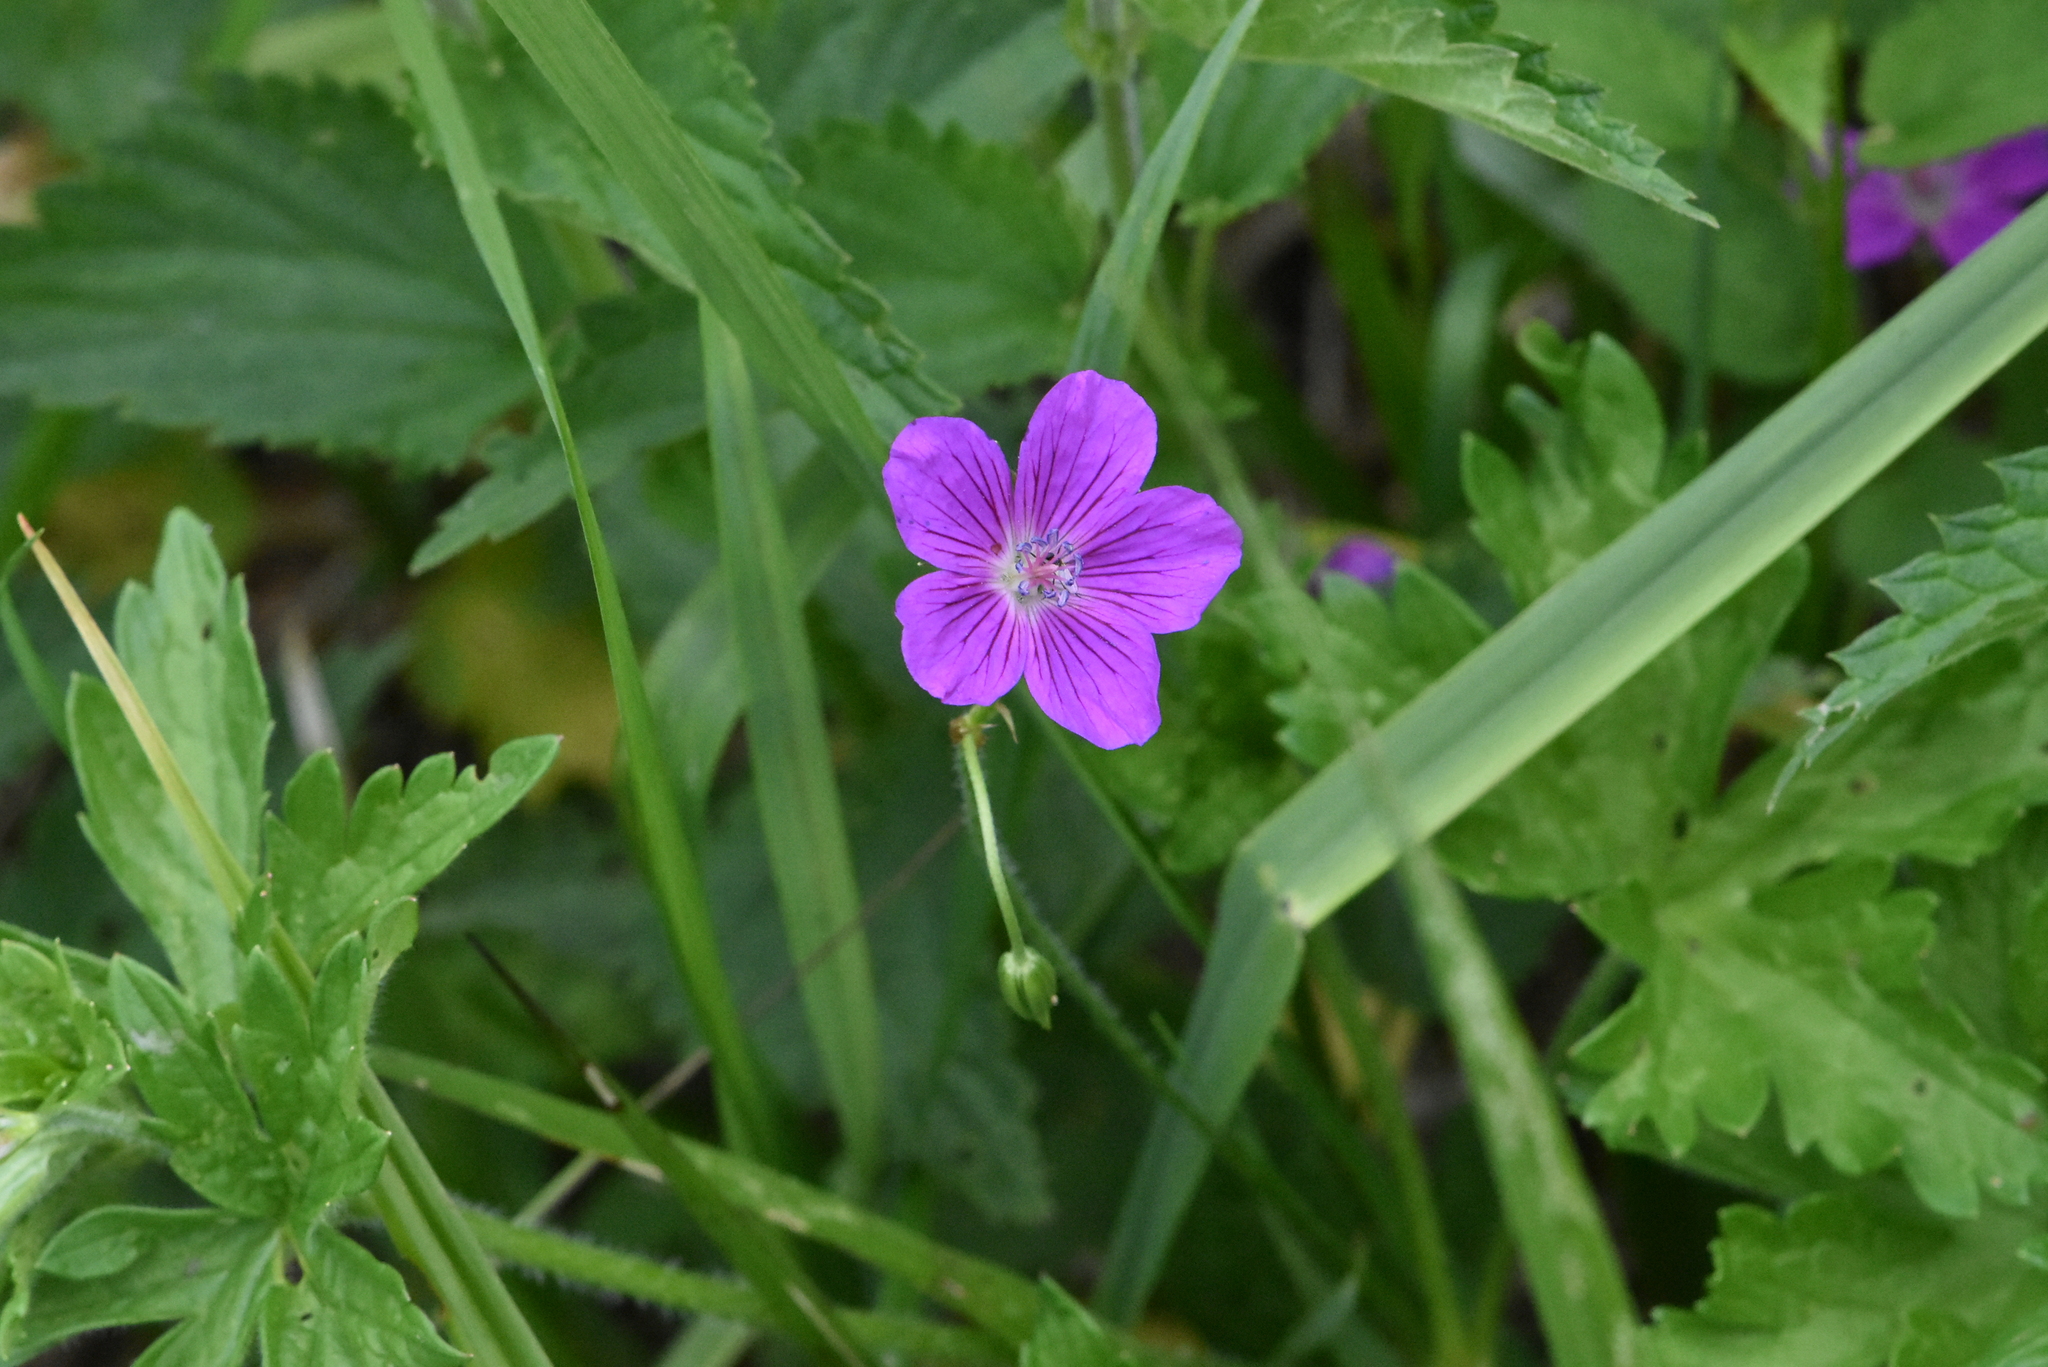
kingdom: Plantae
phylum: Tracheophyta
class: Magnoliopsida
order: Geraniales
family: Geraniaceae
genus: Geranium
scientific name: Geranium palustre
